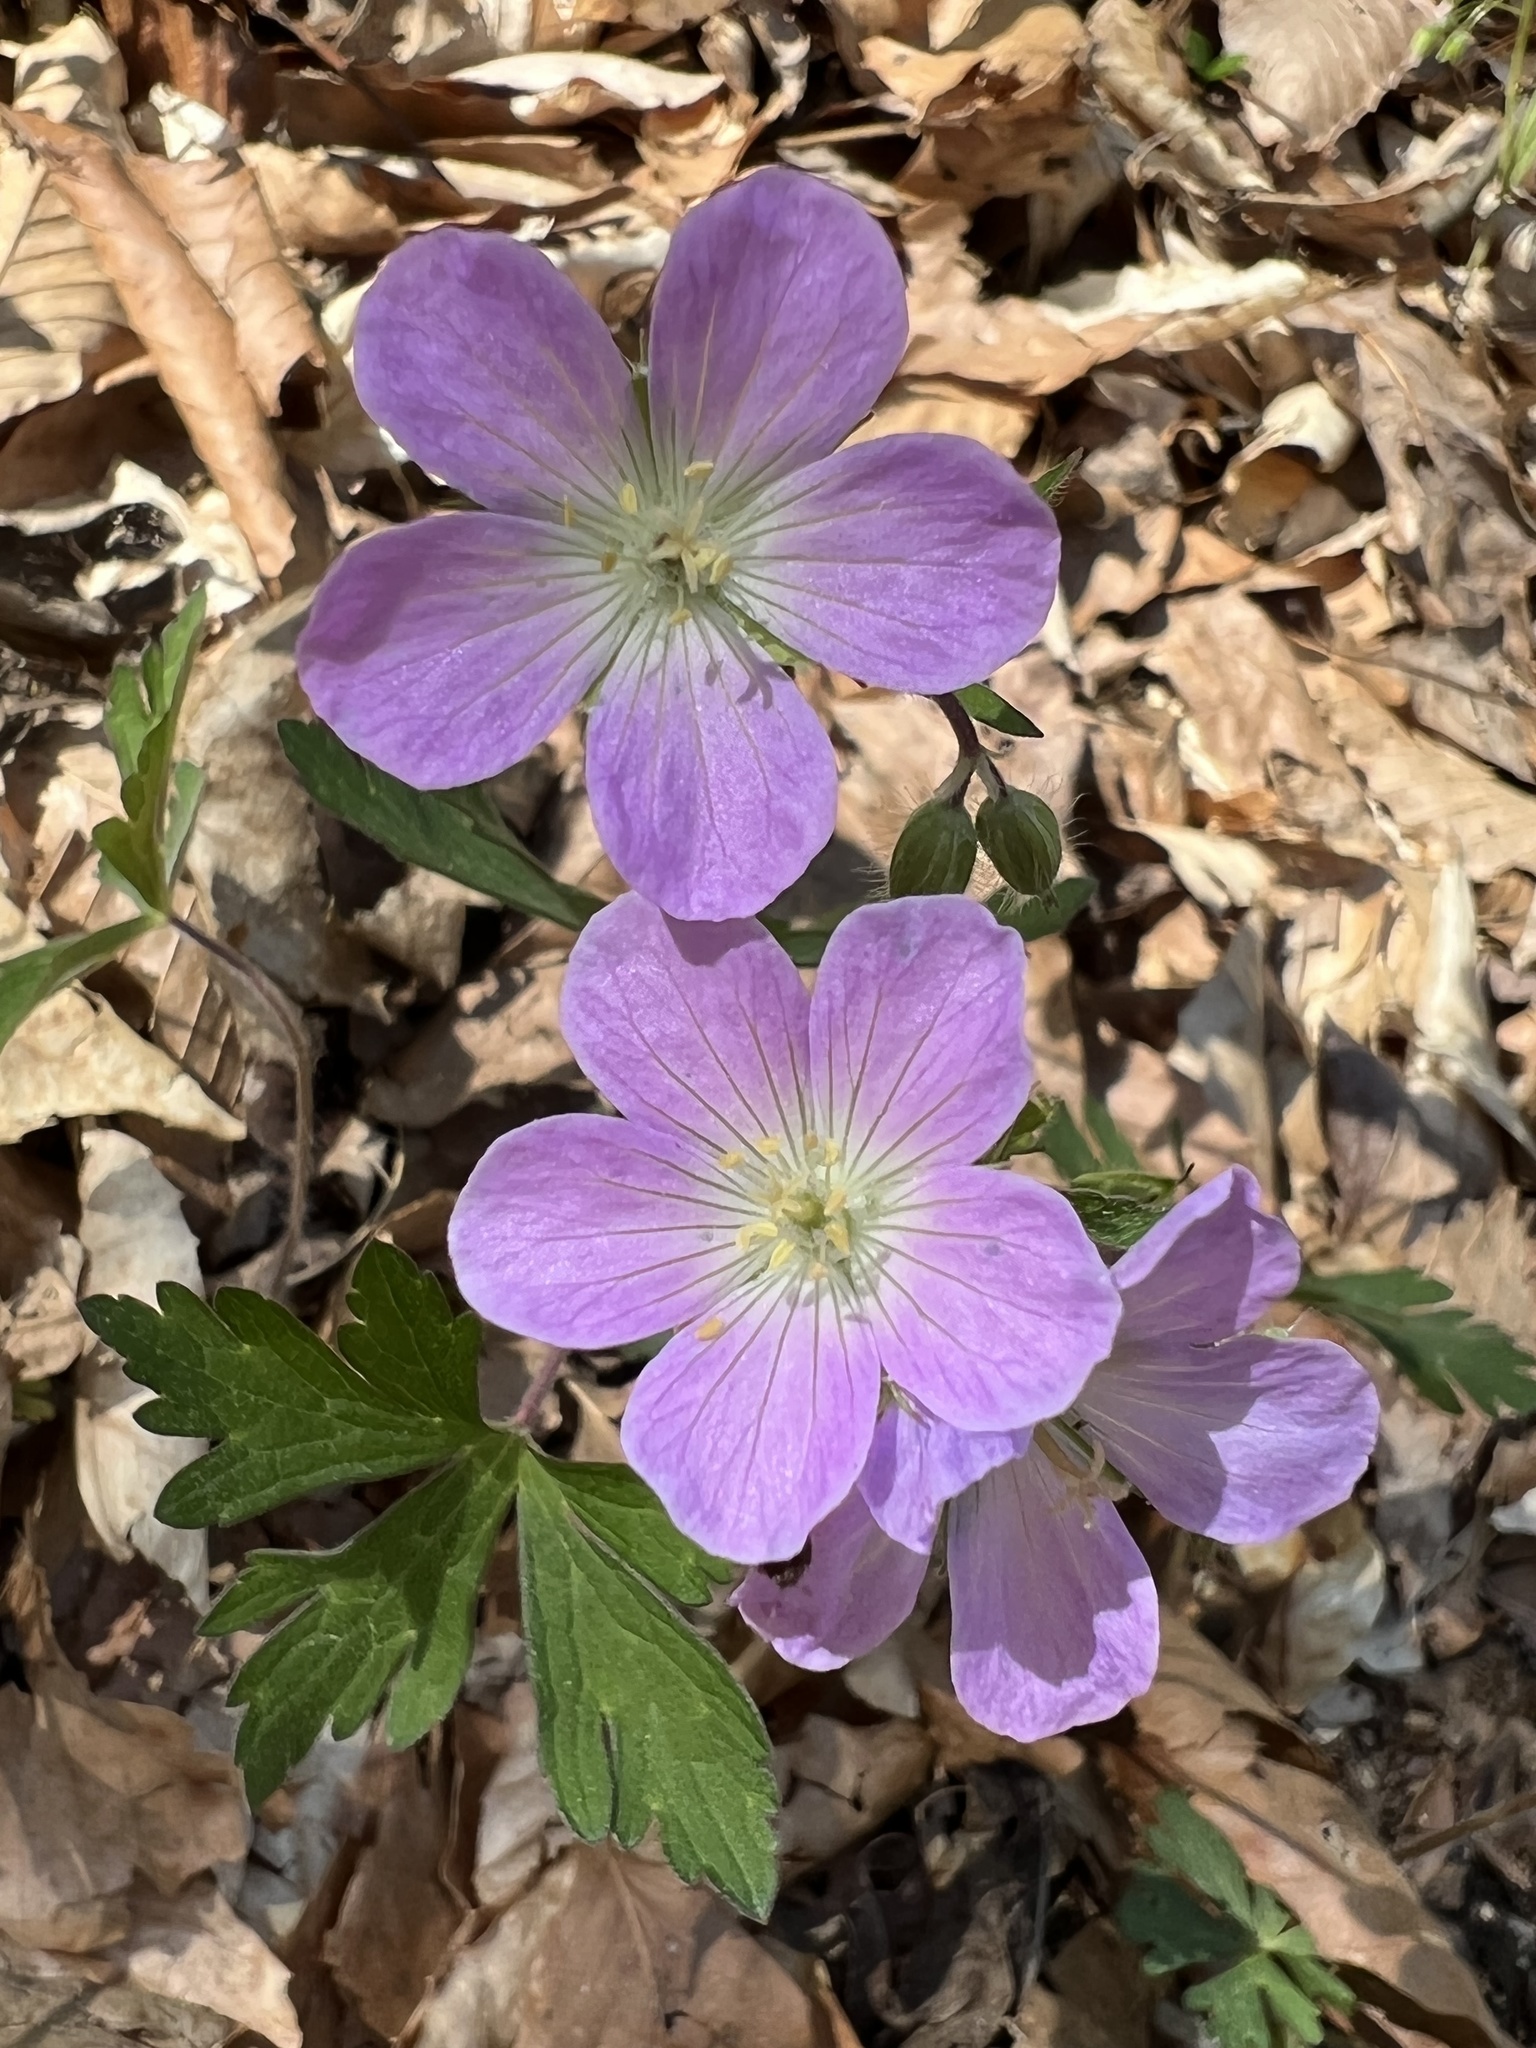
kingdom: Plantae
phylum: Tracheophyta
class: Magnoliopsida
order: Geraniales
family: Geraniaceae
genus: Geranium
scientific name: Geranium maculatum
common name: Spotted geranium
